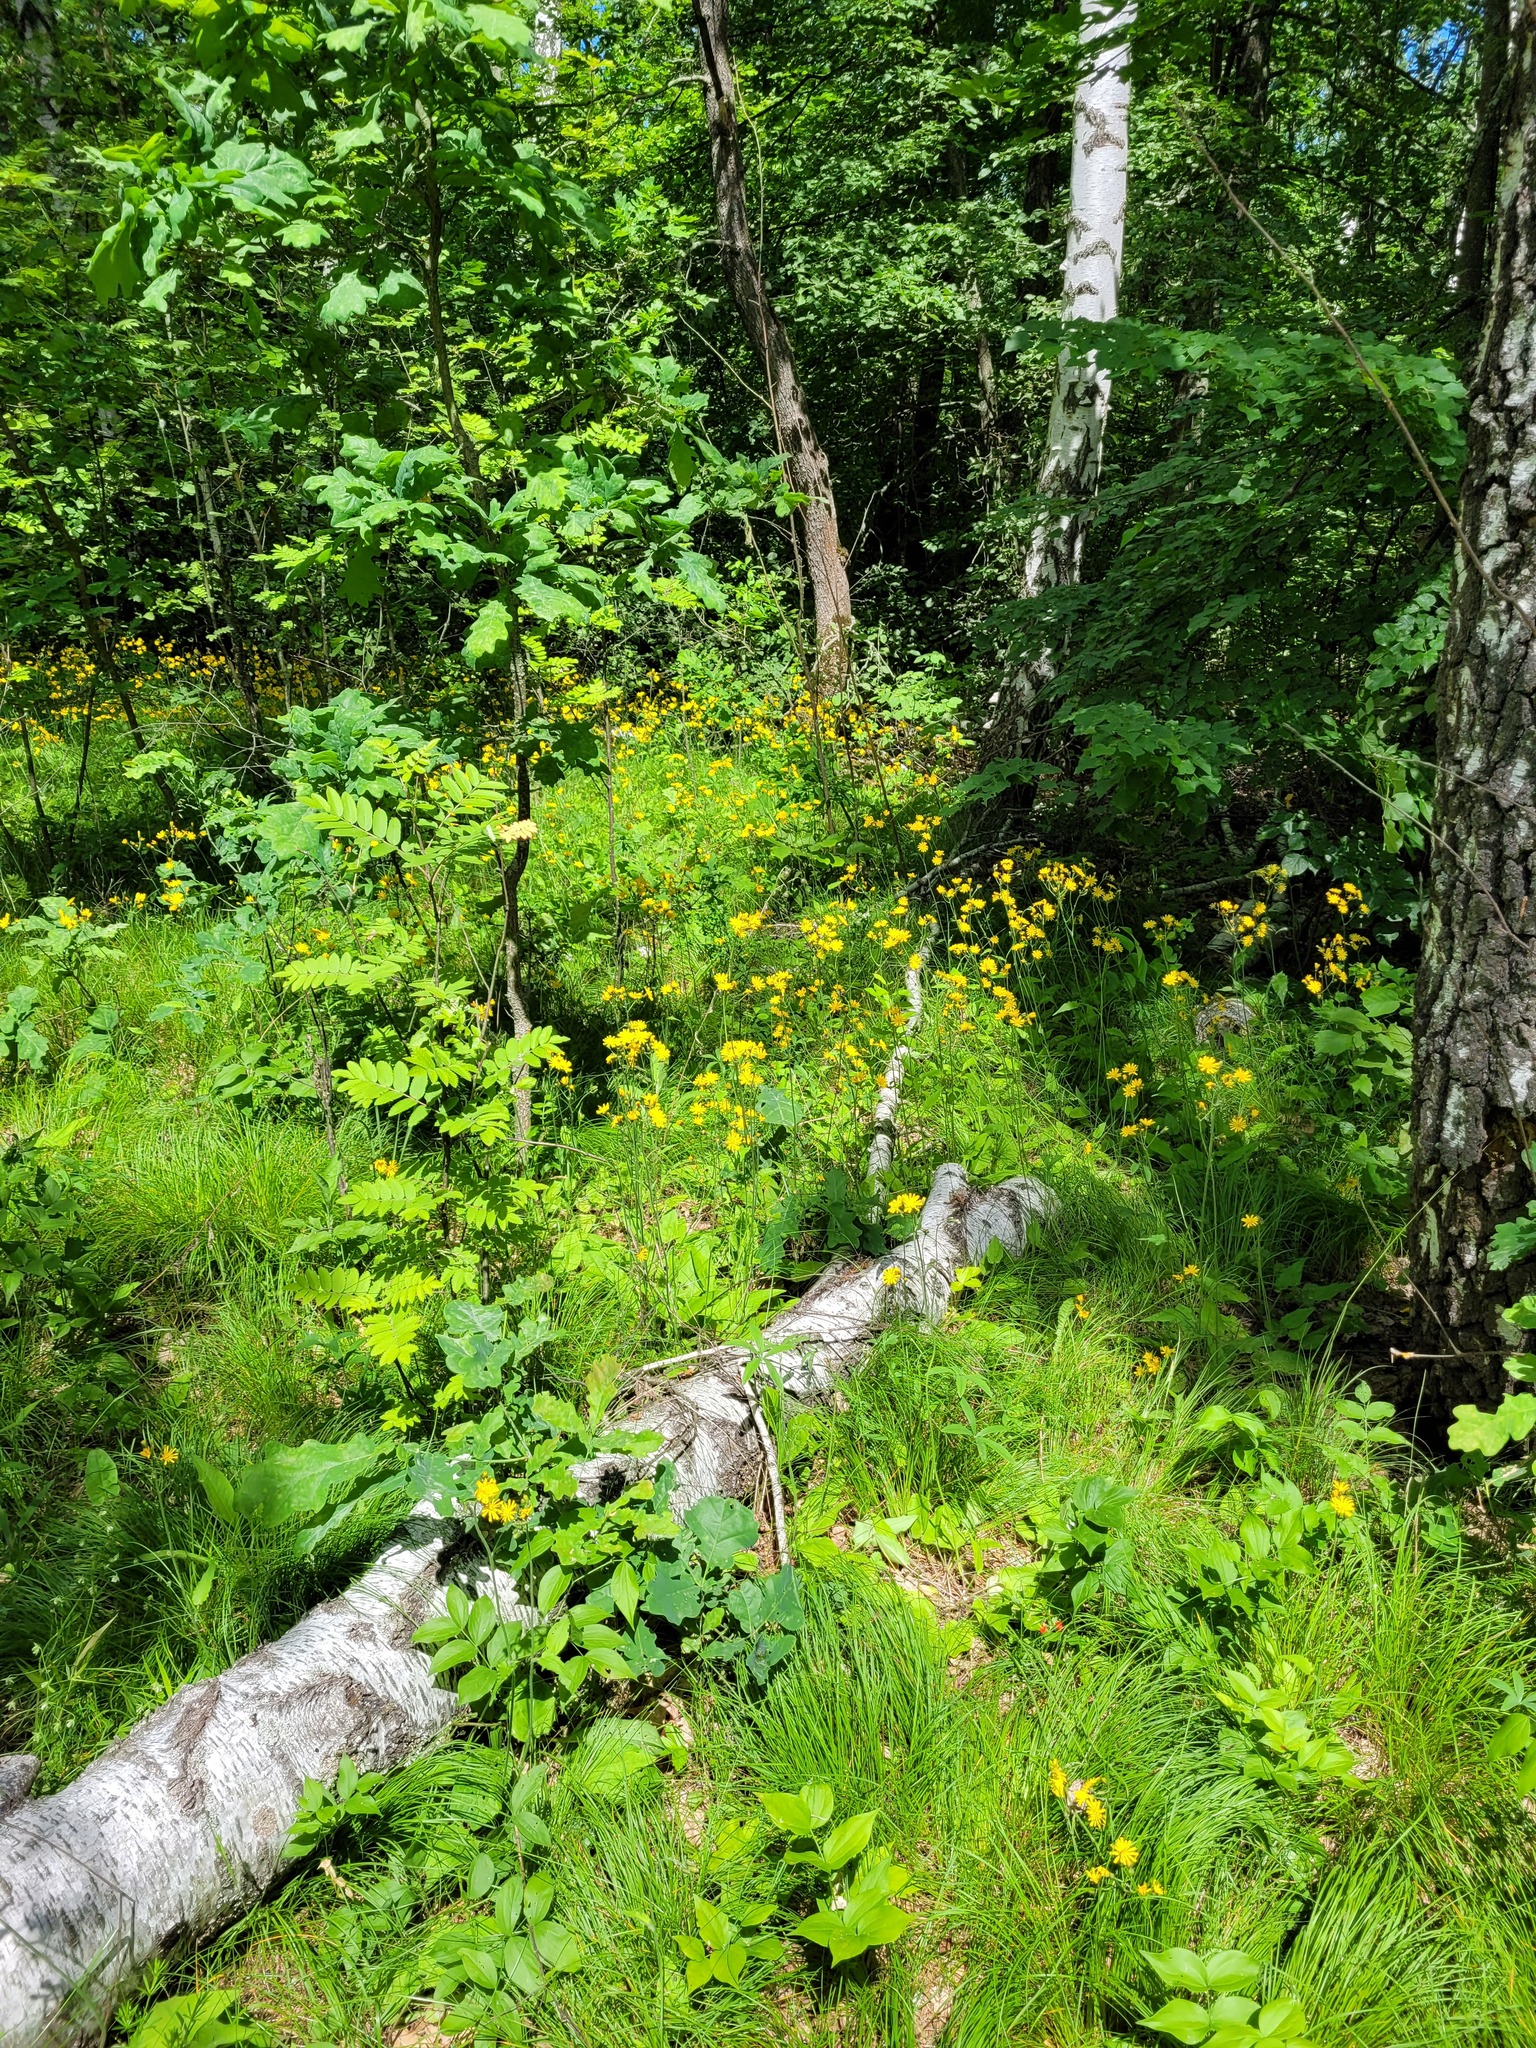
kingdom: Plantae
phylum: Tracheophyta
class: Magnoliopsida
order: Asterales
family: Asteraceae
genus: Hieracium
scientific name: Hieracium murorum
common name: Wall hawkweed
